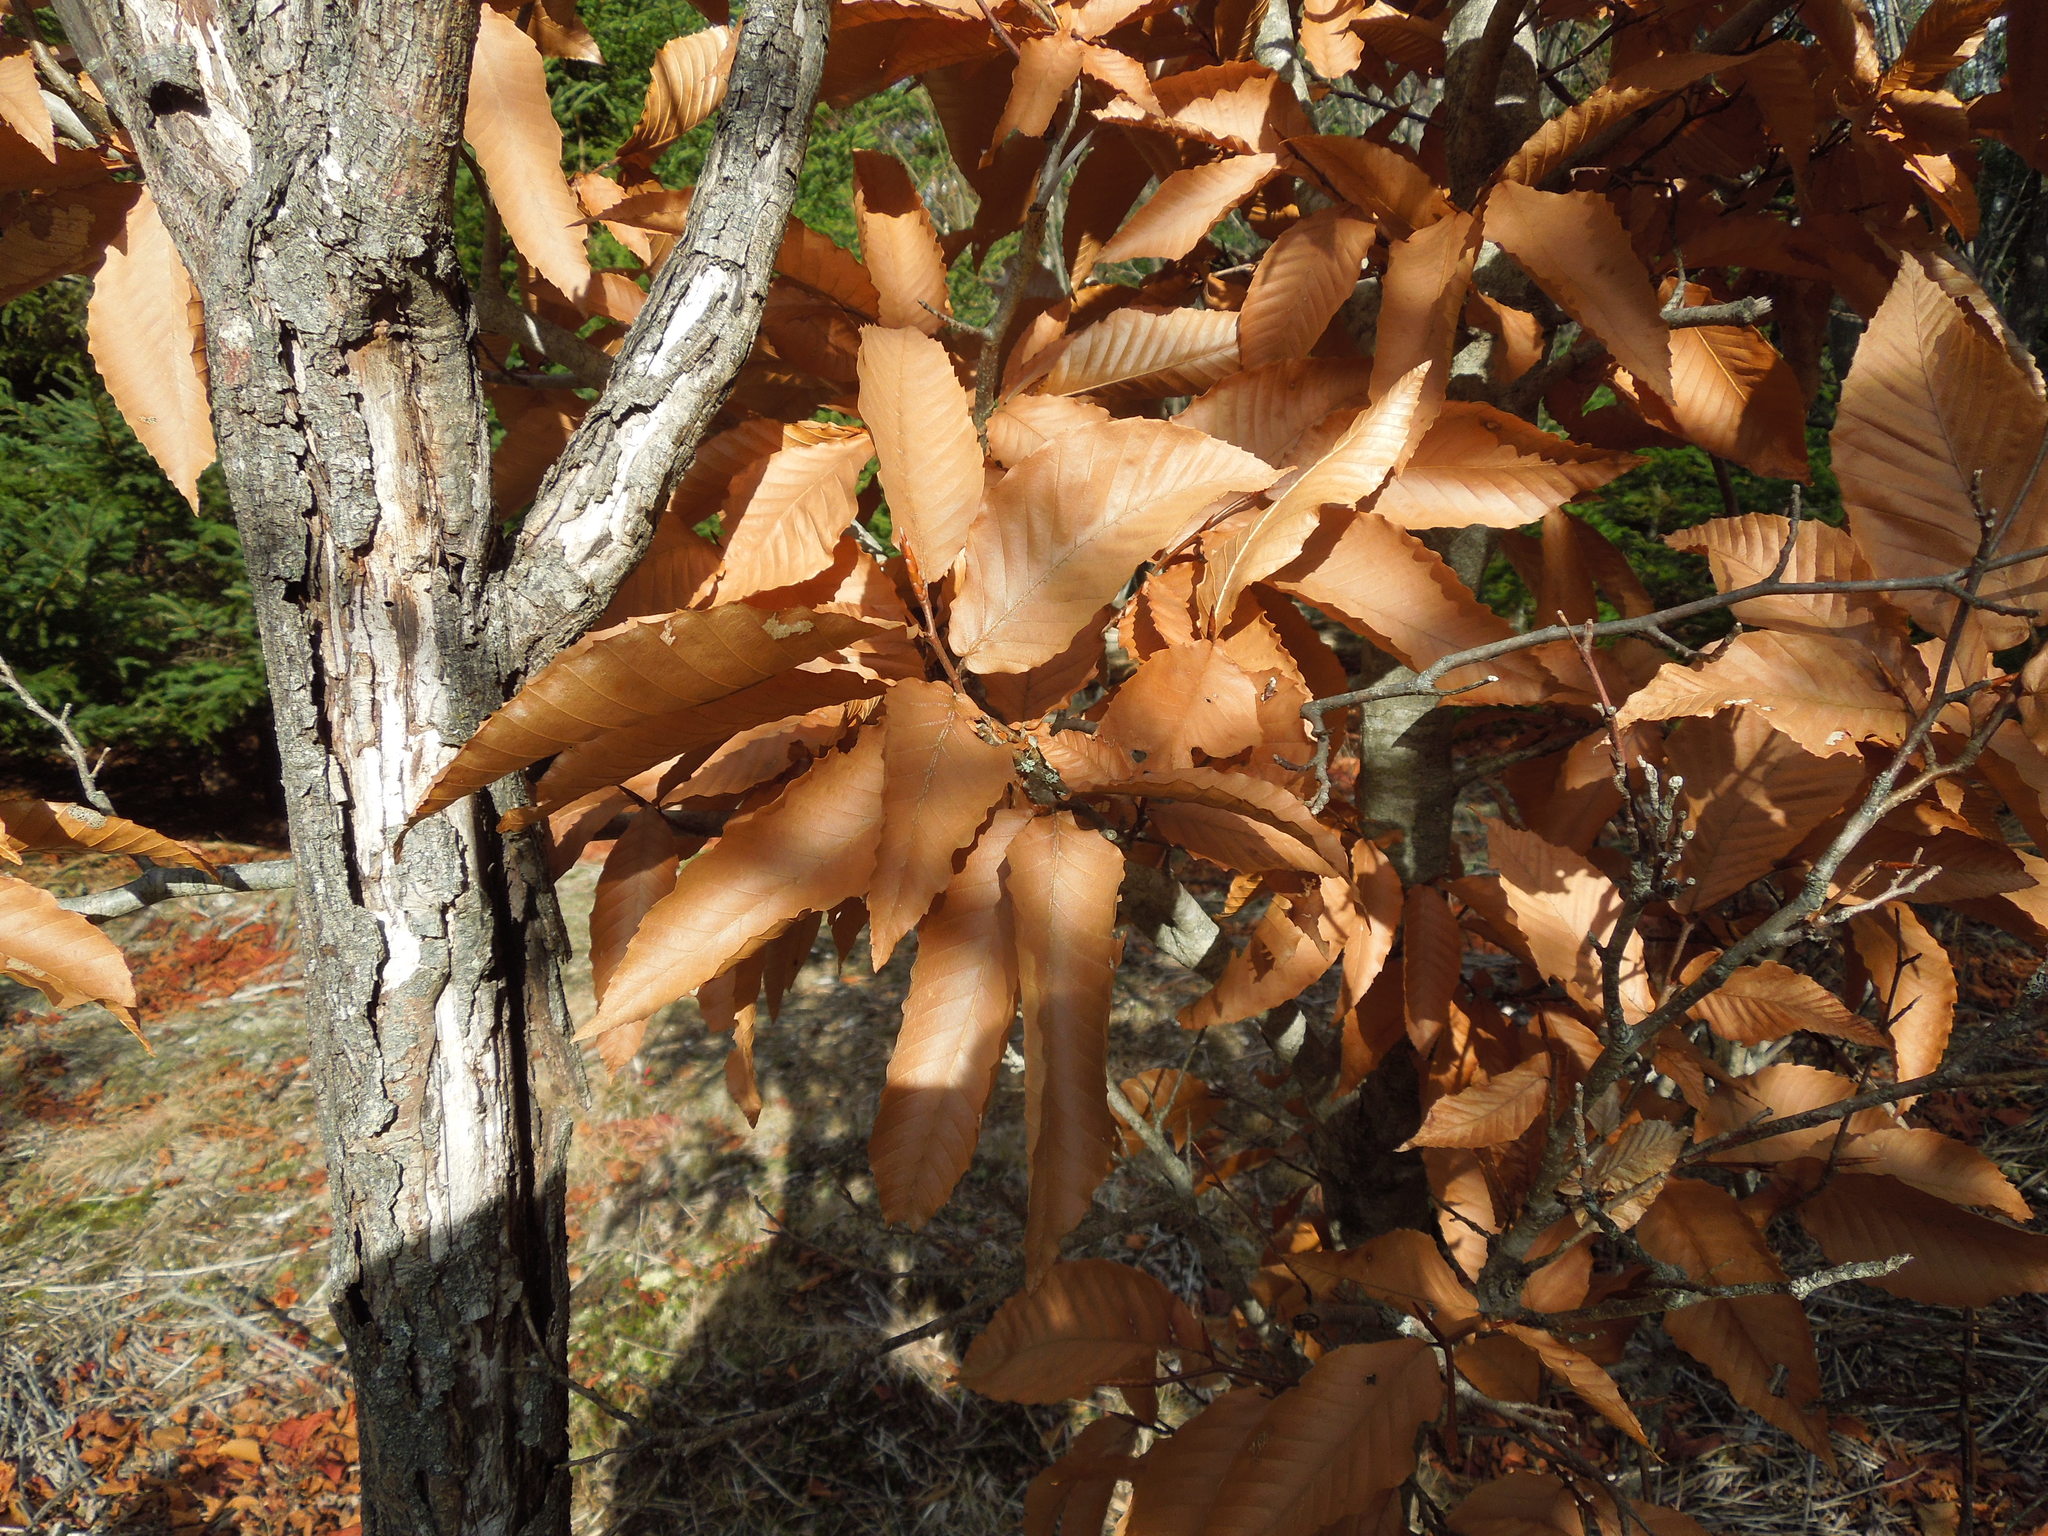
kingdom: Plantae
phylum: Tracheophyta
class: Magnoliopsida
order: Fagales
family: Fagaceae
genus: Fagus
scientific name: Fagus grandifolia
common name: American beech
